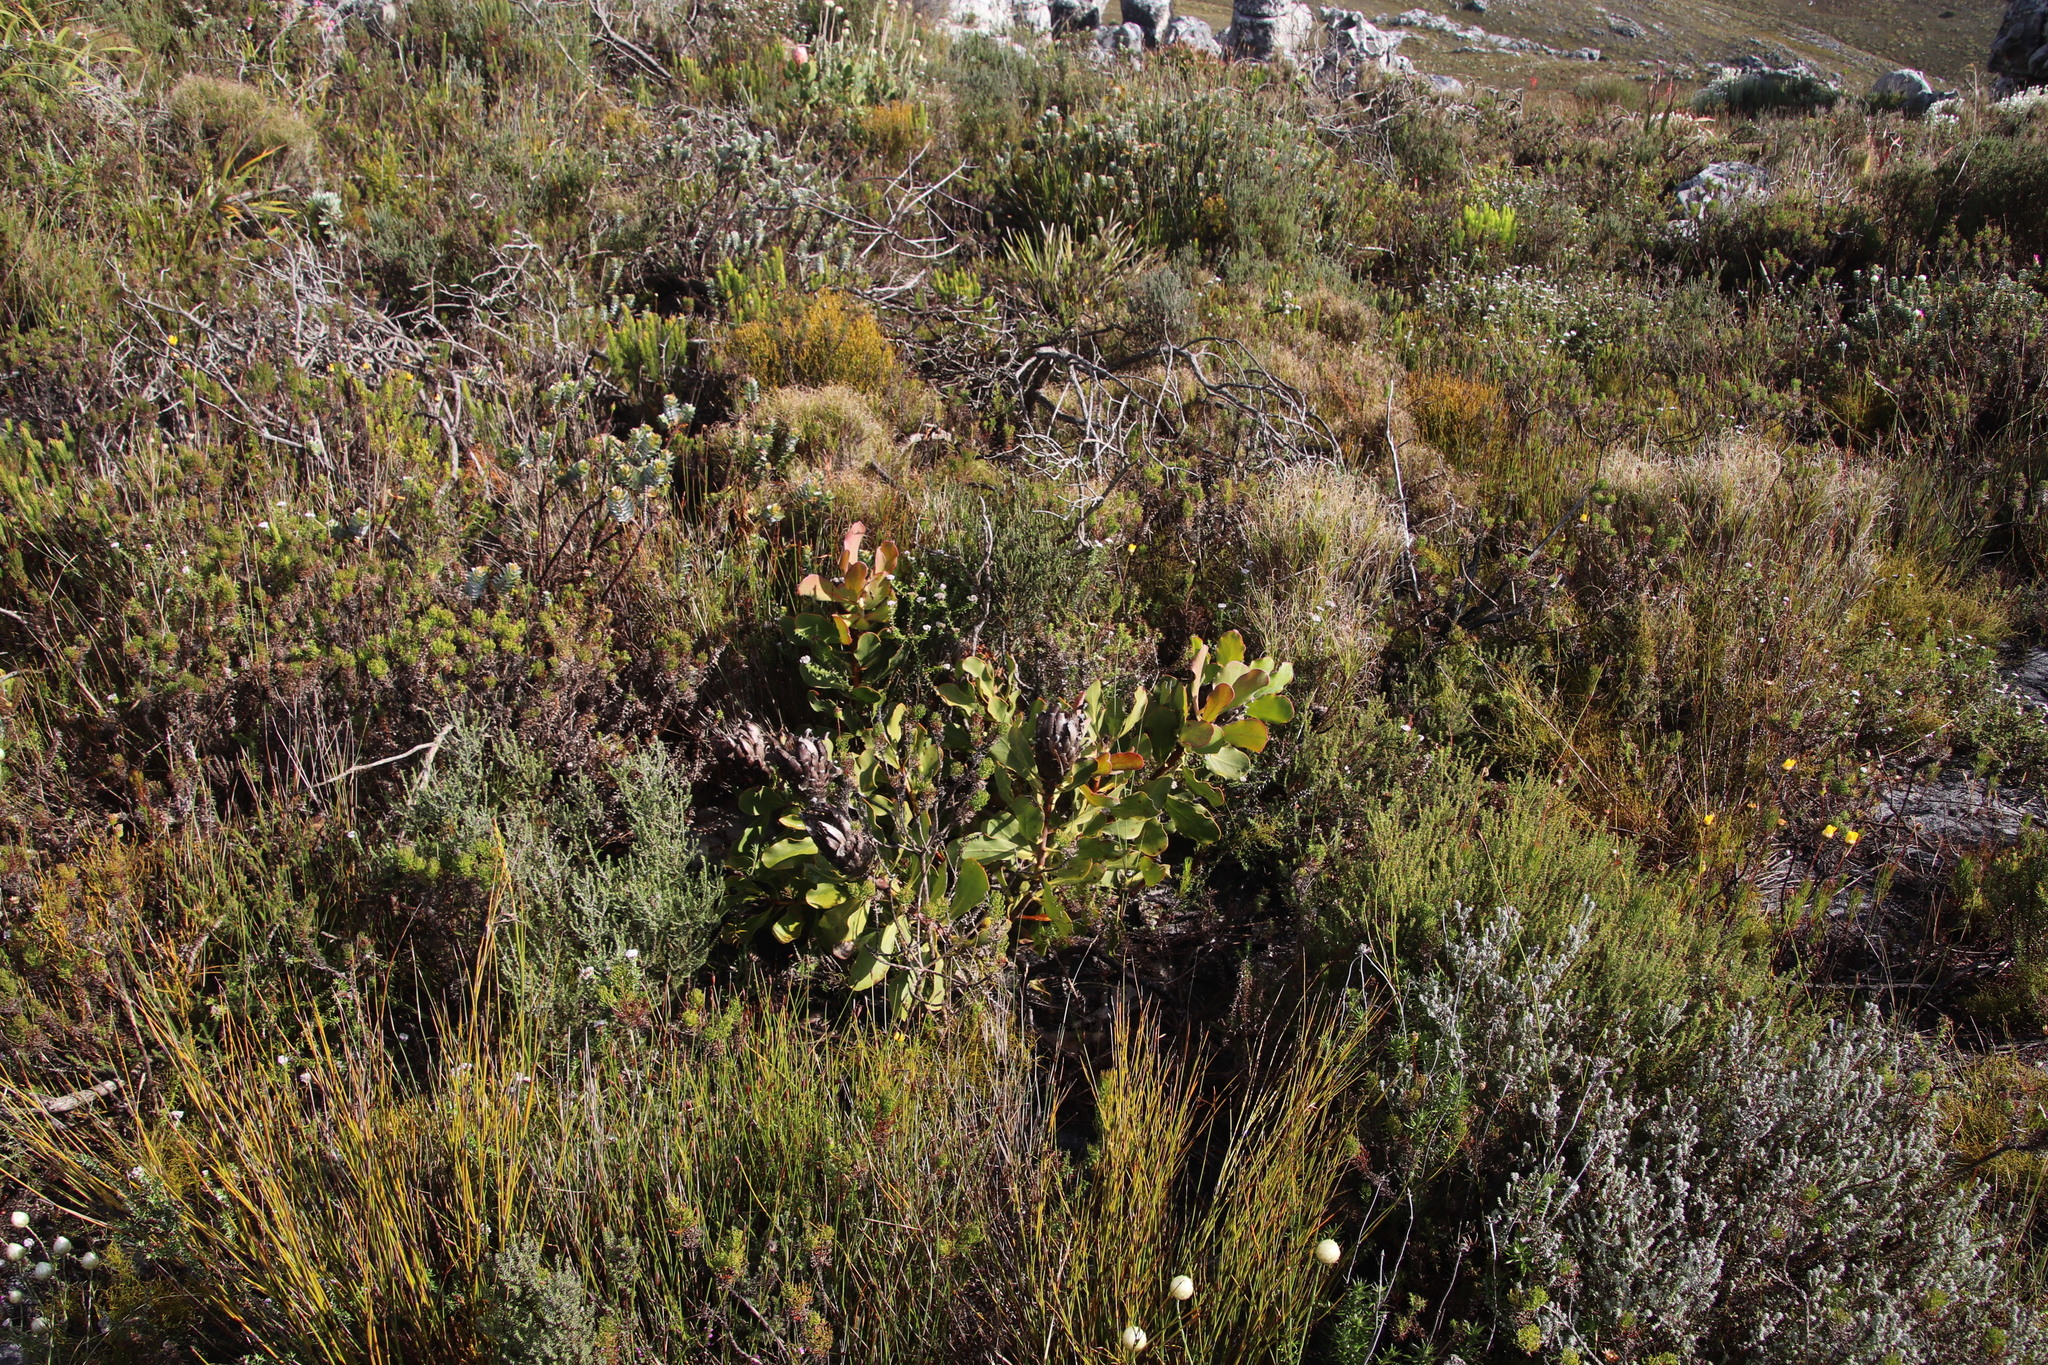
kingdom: Plantae
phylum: Tracheophyta
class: Magnoliopsida
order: Proteales
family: Proteaceae
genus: Protea
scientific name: Protea speciosa
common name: Brown-beard sugarbush
